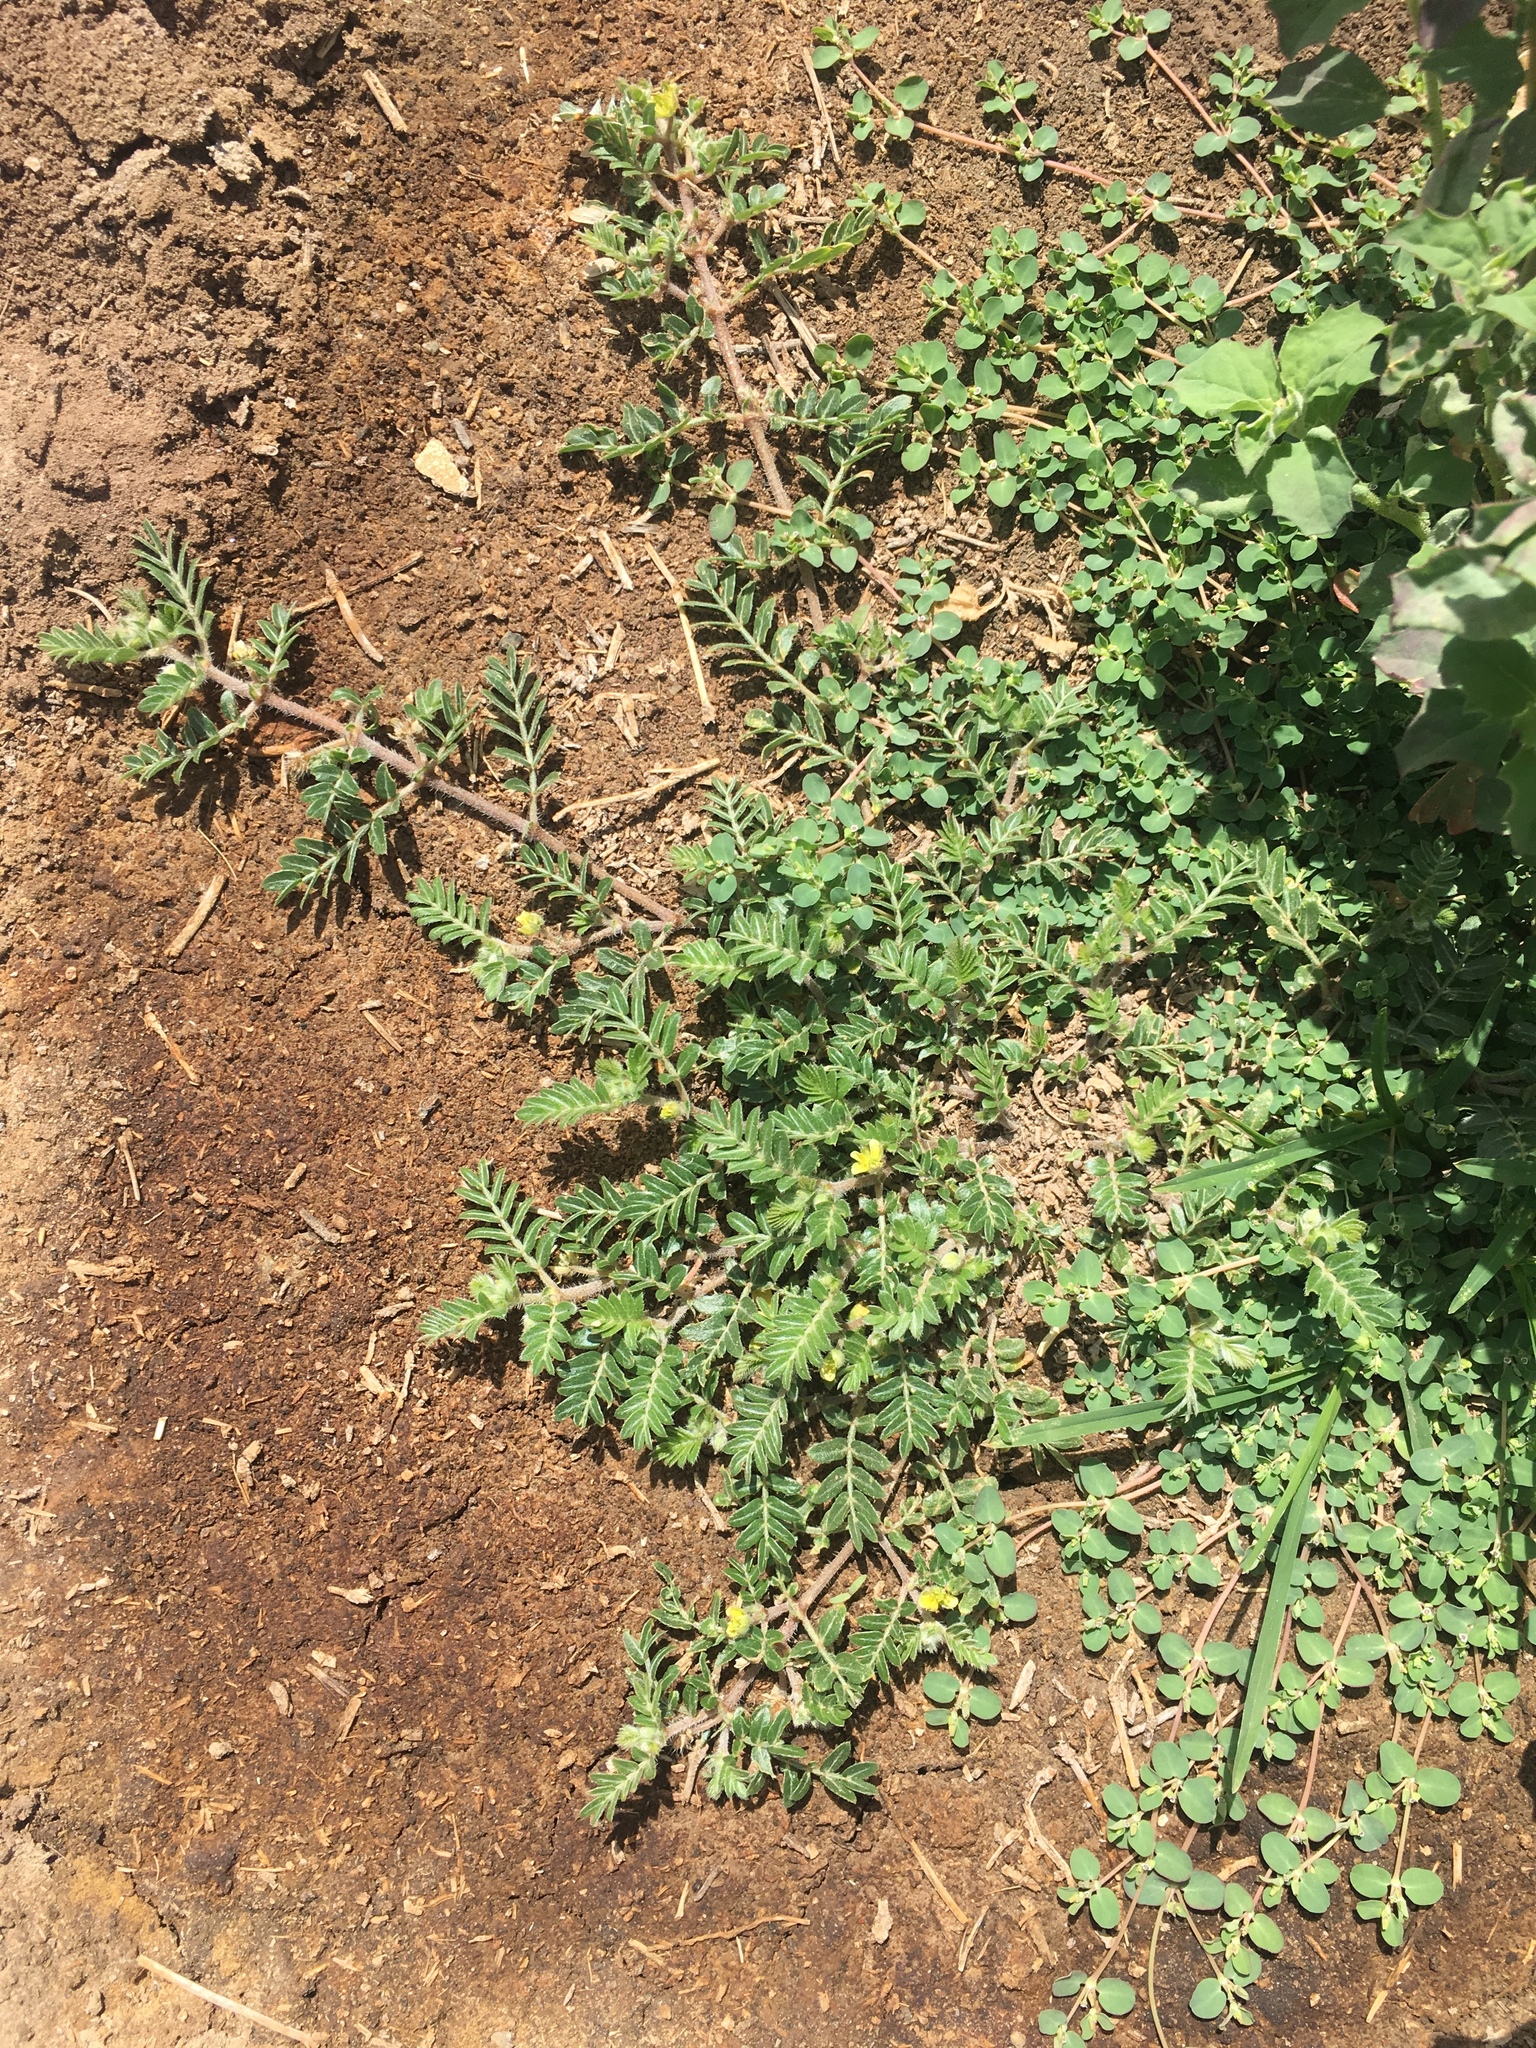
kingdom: Plantae
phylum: Tracheophyta
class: Magnoliopsida
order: Zygophyllales
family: Zygophyllaceae
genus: Tribulus
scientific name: Tribulus terrestris
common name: Puncturevine
